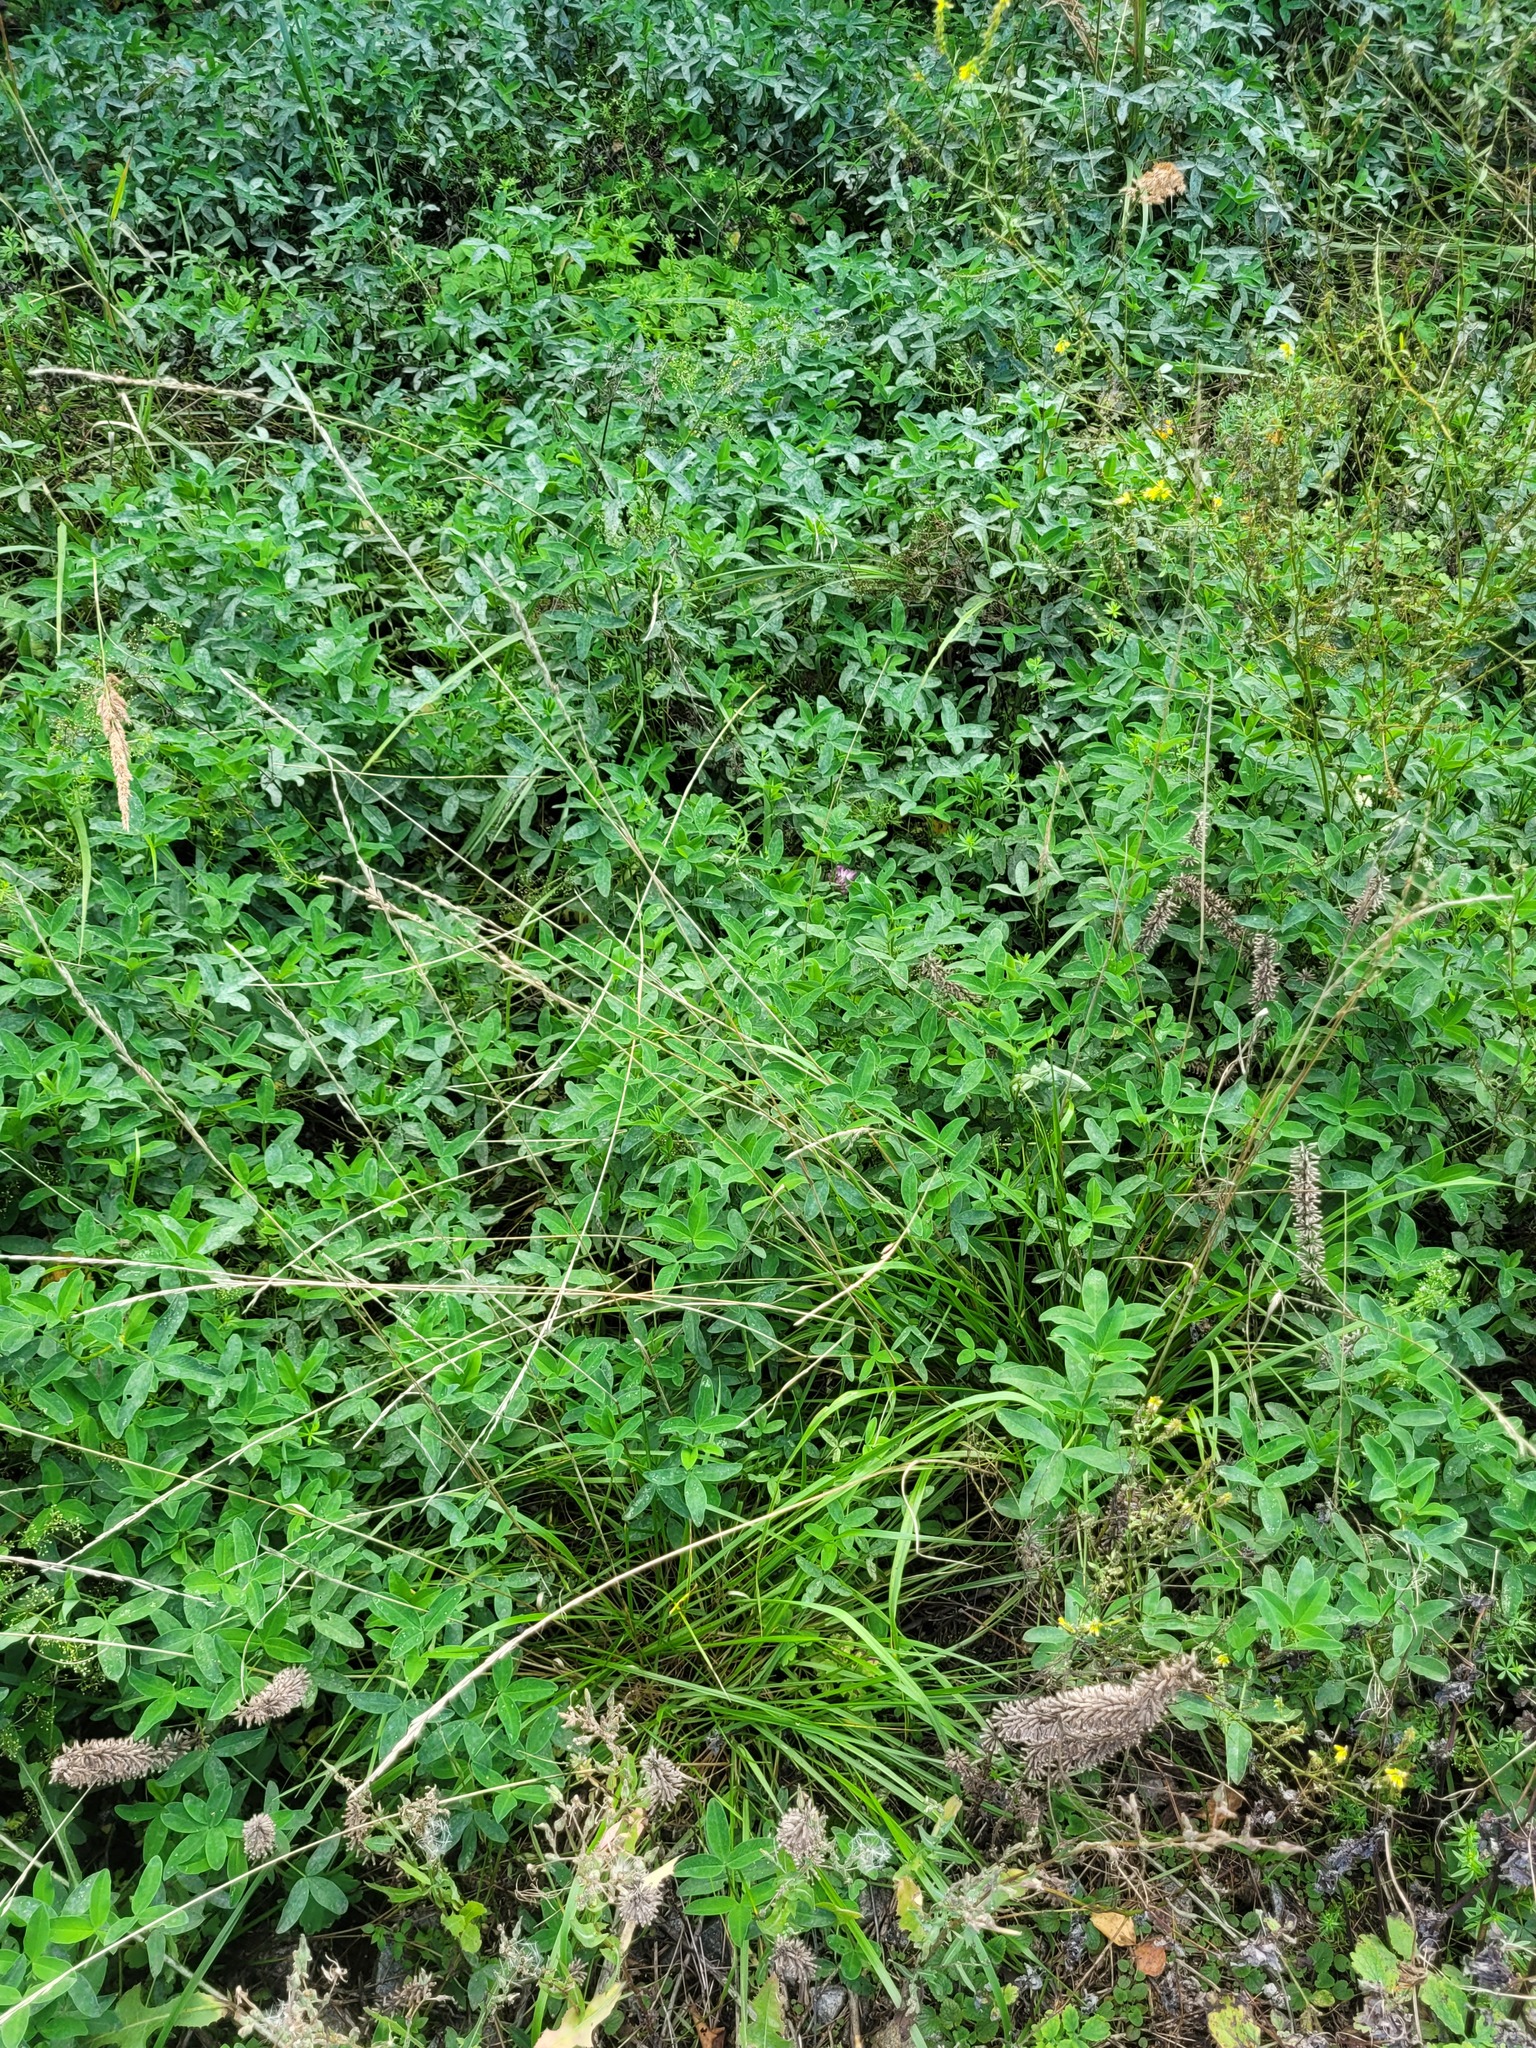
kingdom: Plantae
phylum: Tracheophyta
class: Liliopsida
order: Poales
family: Poaceae
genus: Lolium
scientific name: Lolium pratense
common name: Dover grass
